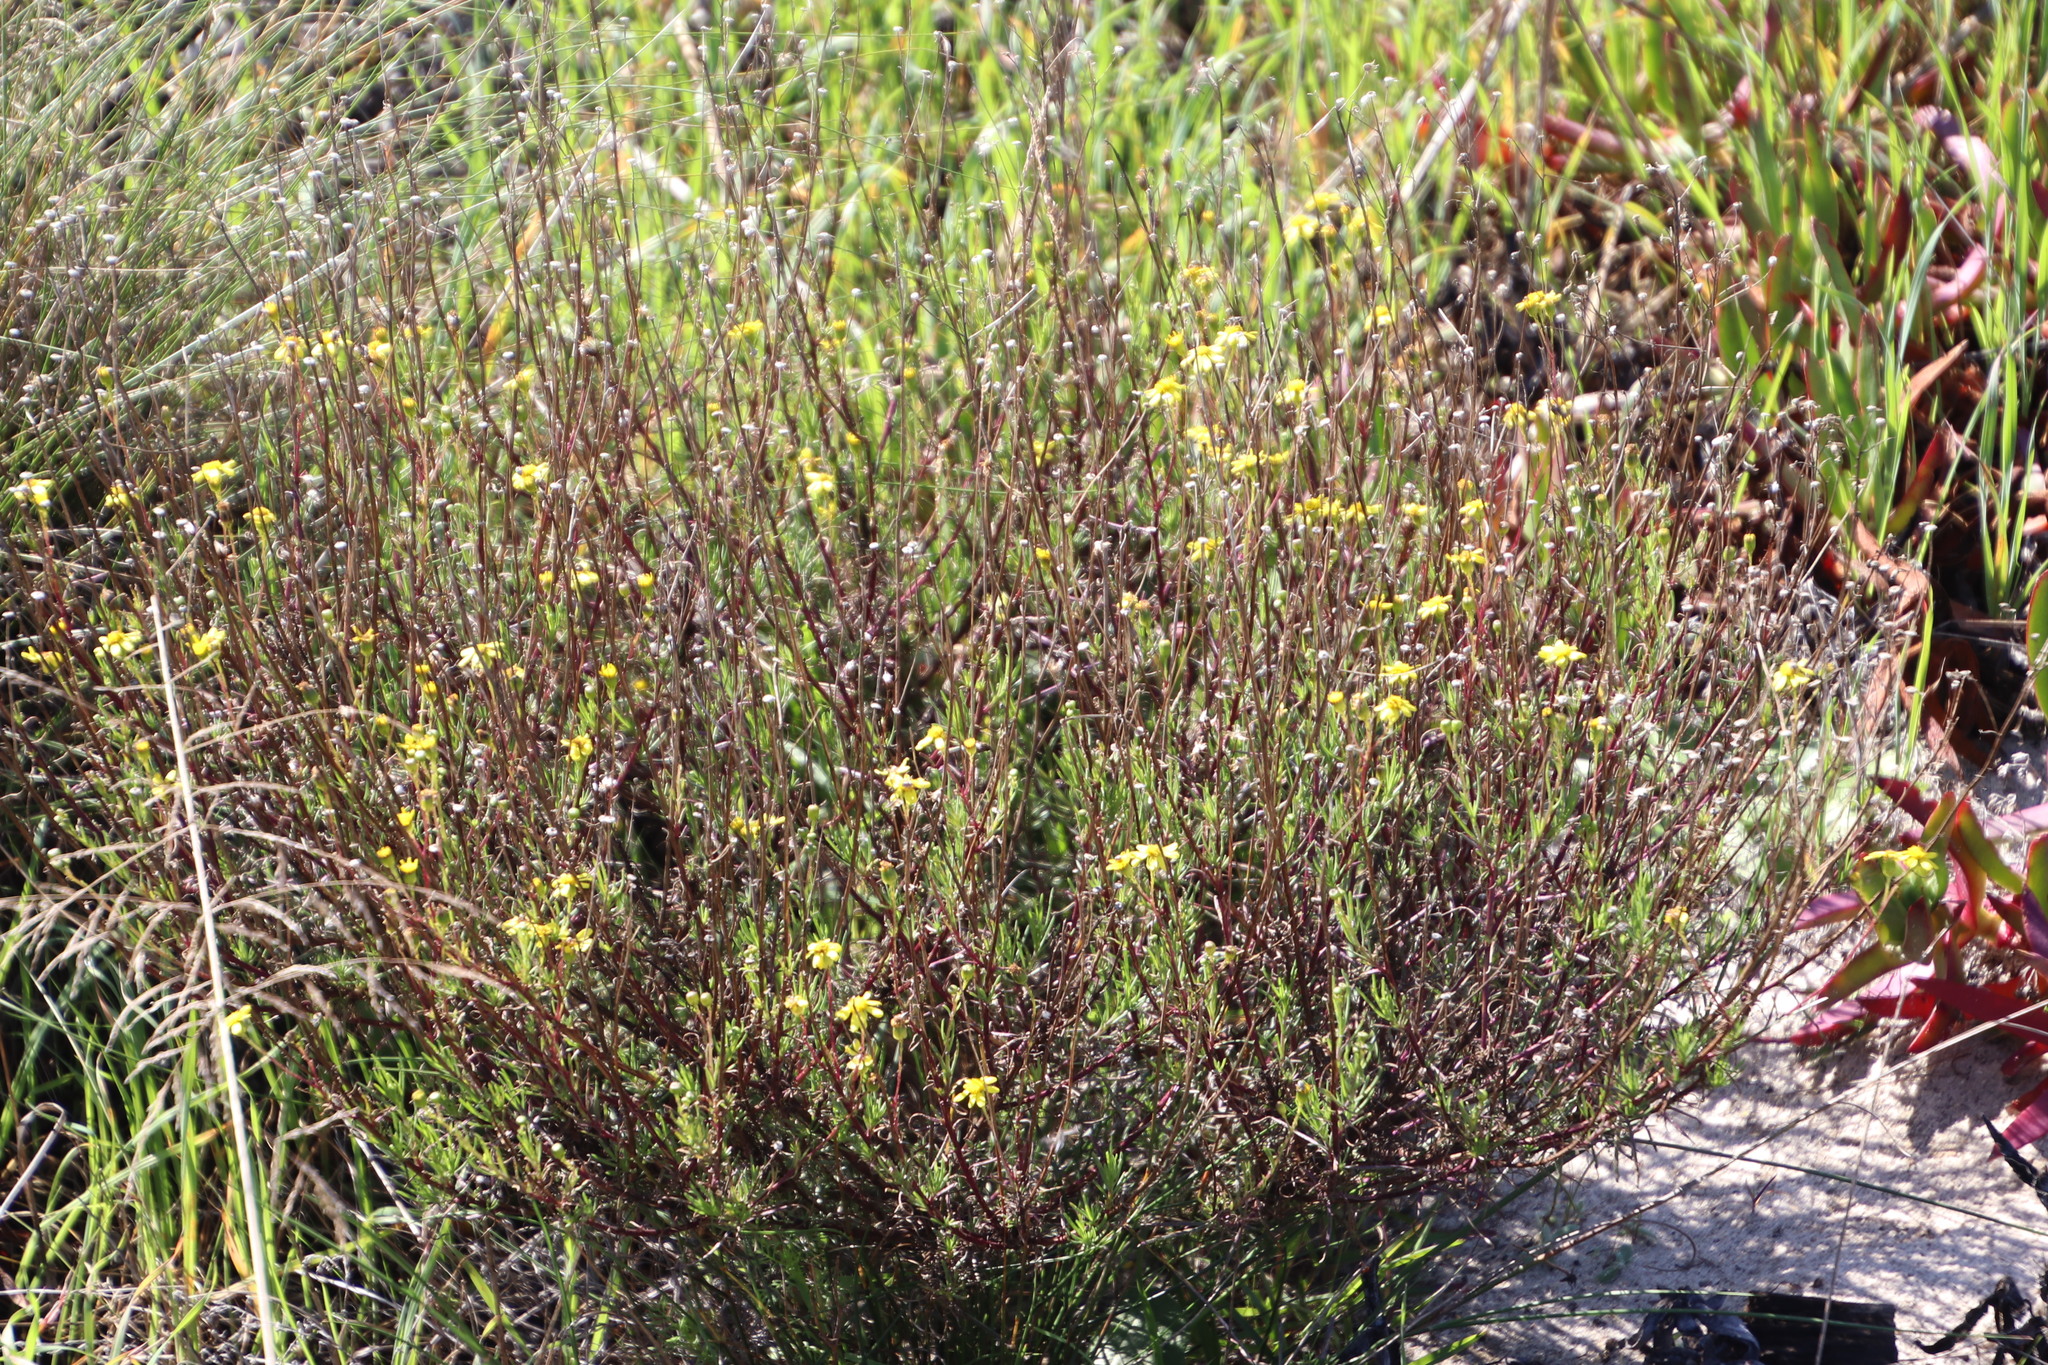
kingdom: Plantae
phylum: Tracheophyta
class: Magnoliopsida
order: Asterales
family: Asteraceae
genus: Senecio
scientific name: Senecio burchellii
